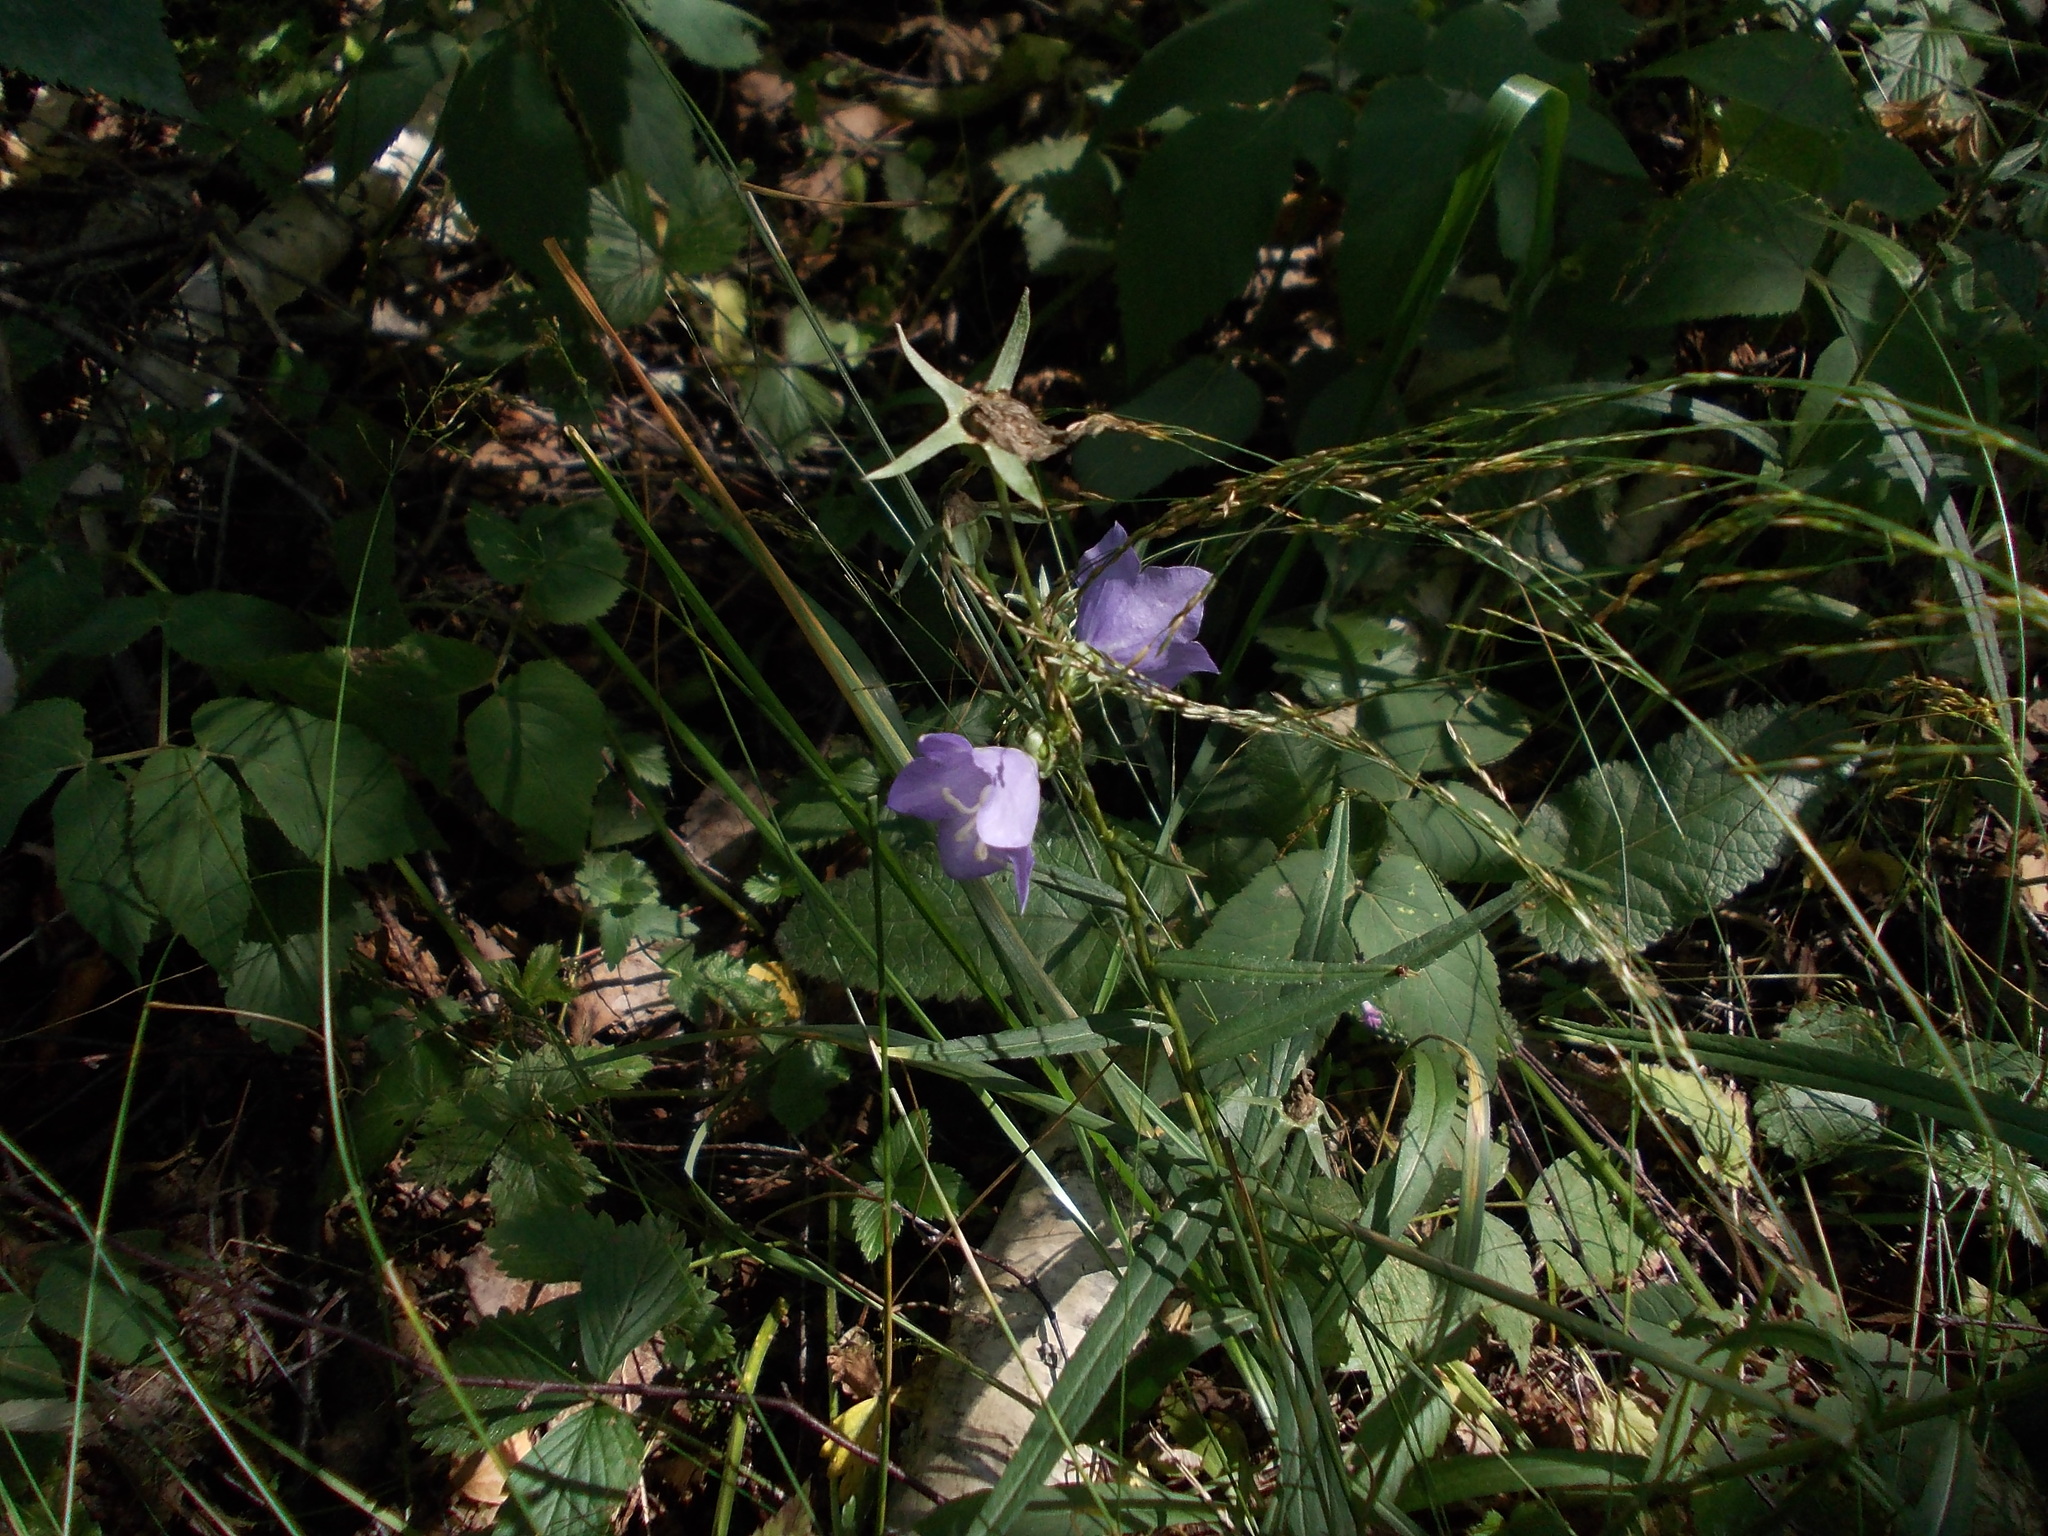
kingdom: Plantae
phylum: Tracheophyta
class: Magnoliopsida
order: Asterales
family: Campanulaceae
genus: Campanula
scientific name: Campanula persicifolia
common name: Peach-leaved bellflower
